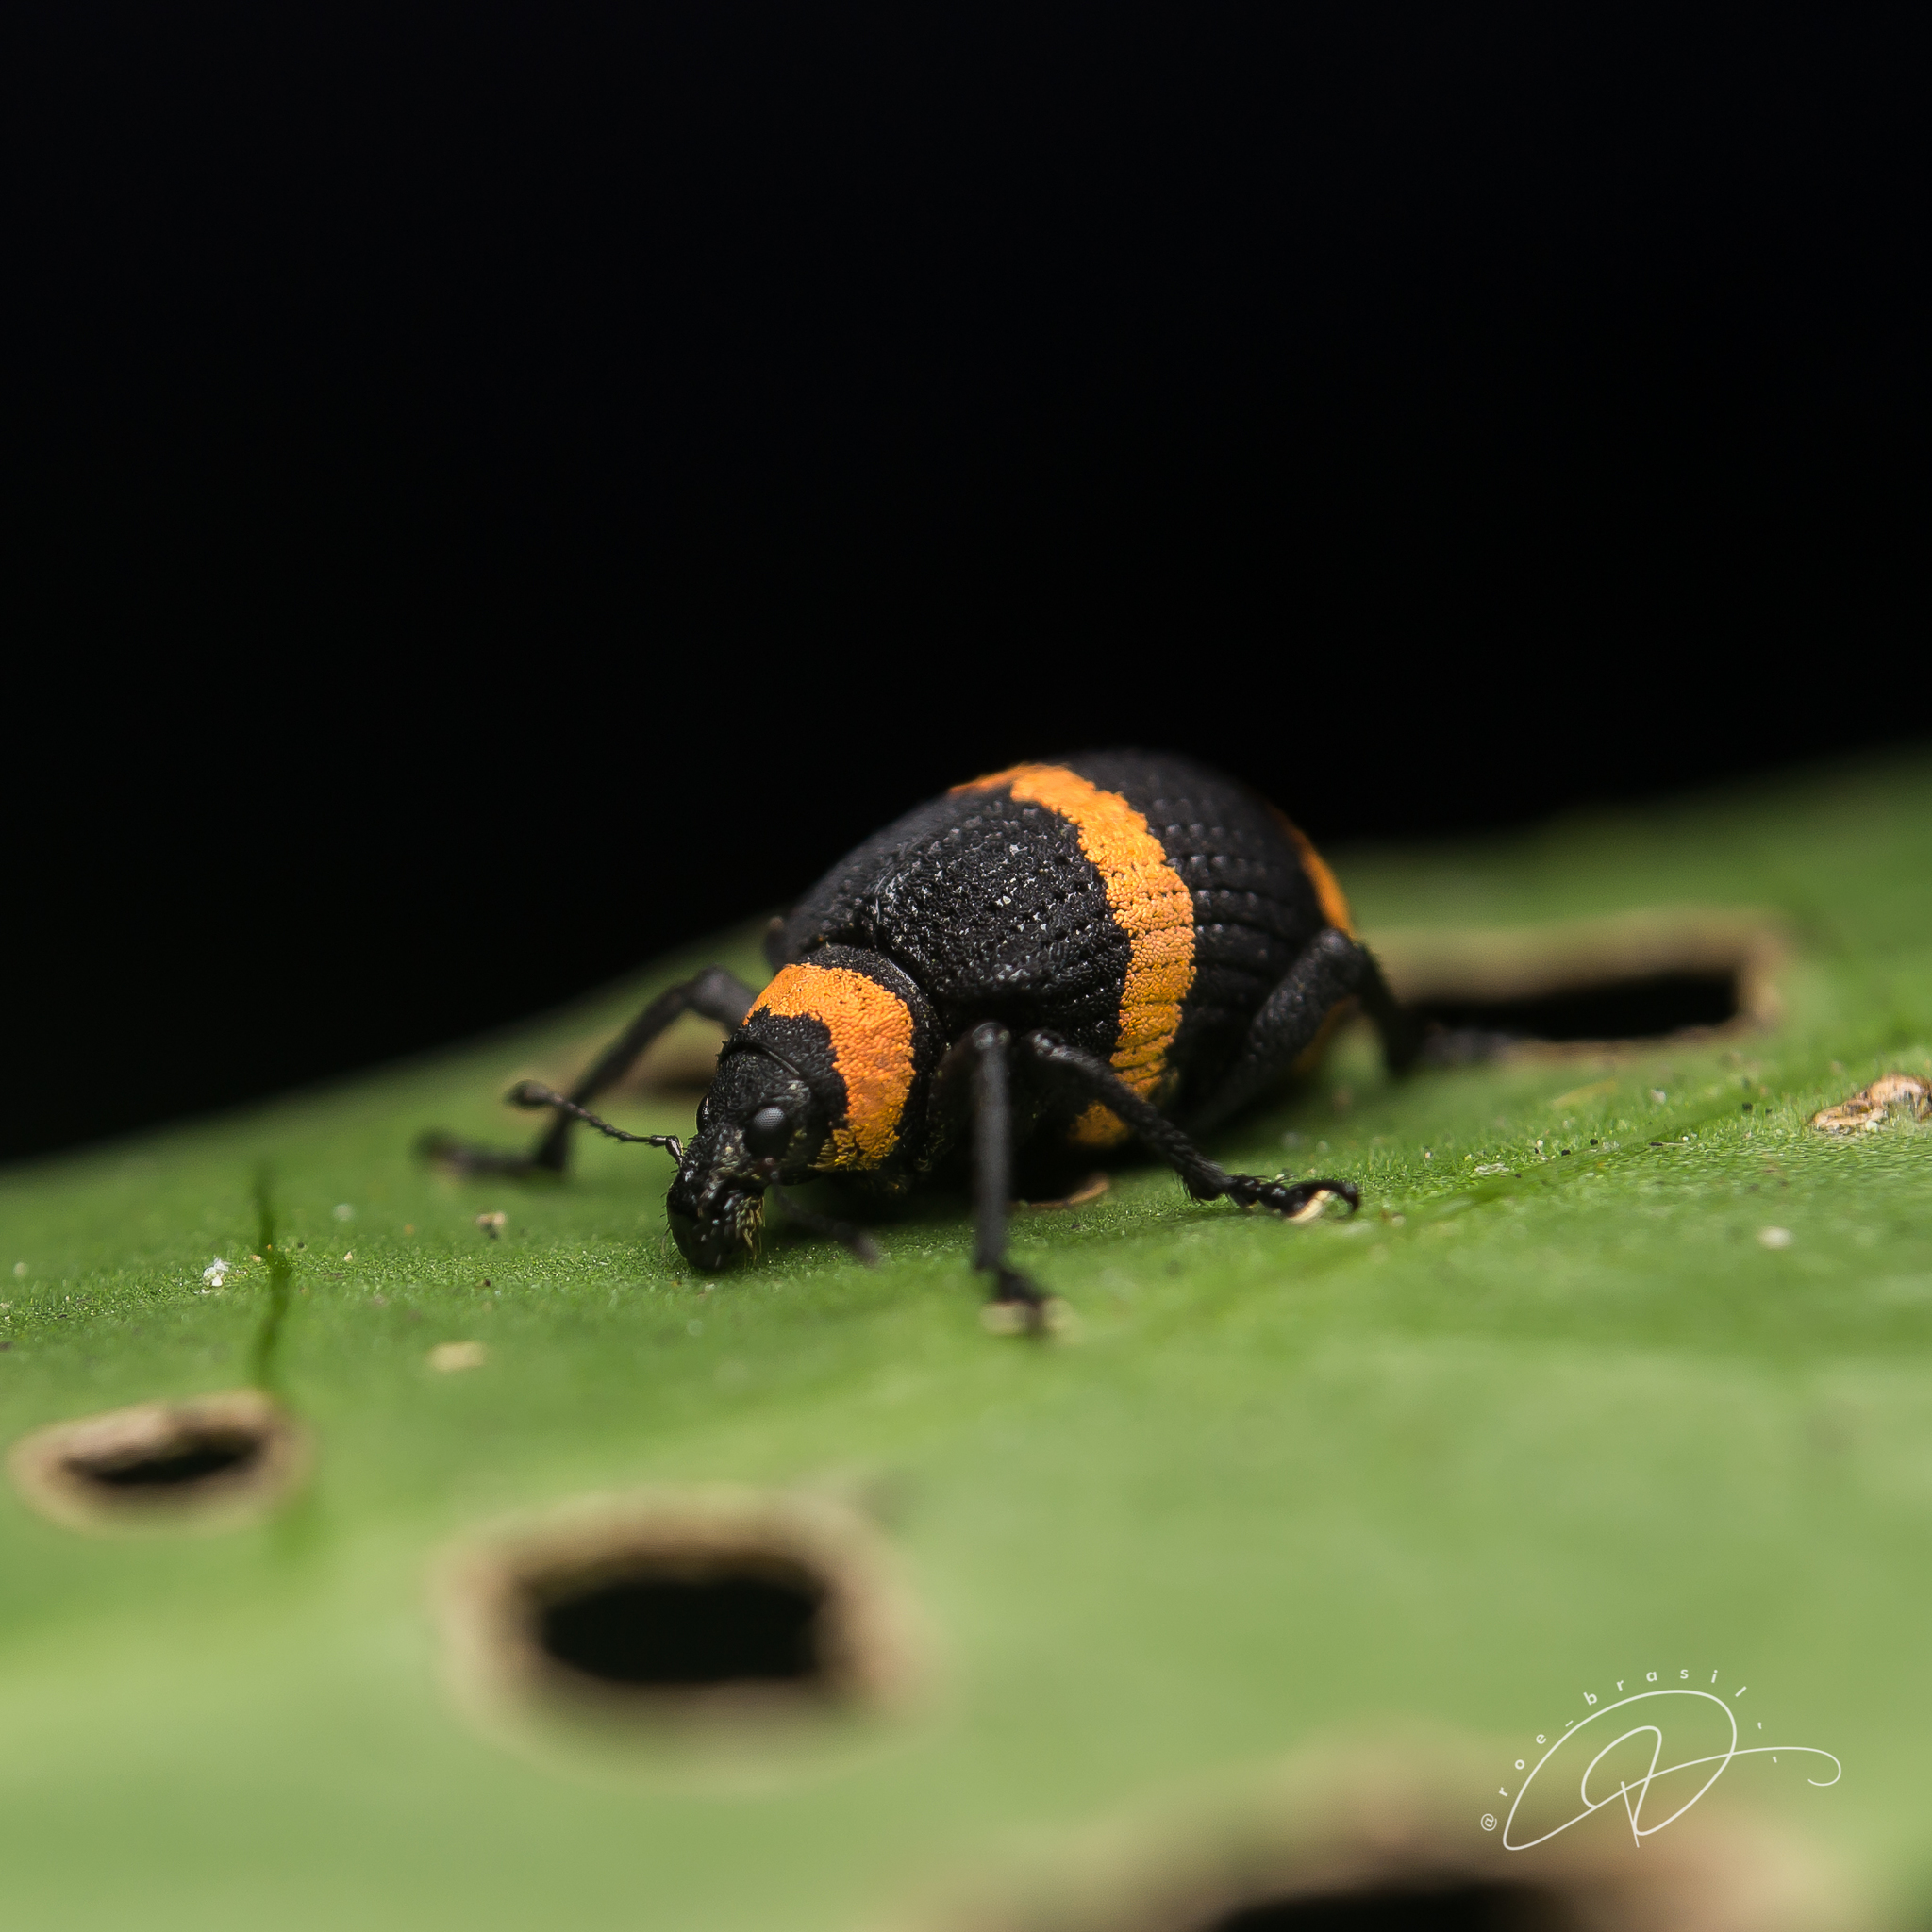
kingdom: Animalia
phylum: Arthropoda
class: Insecta
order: Coleoptera
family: Curculionidae
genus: Entyus
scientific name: Entyus auricinctus
